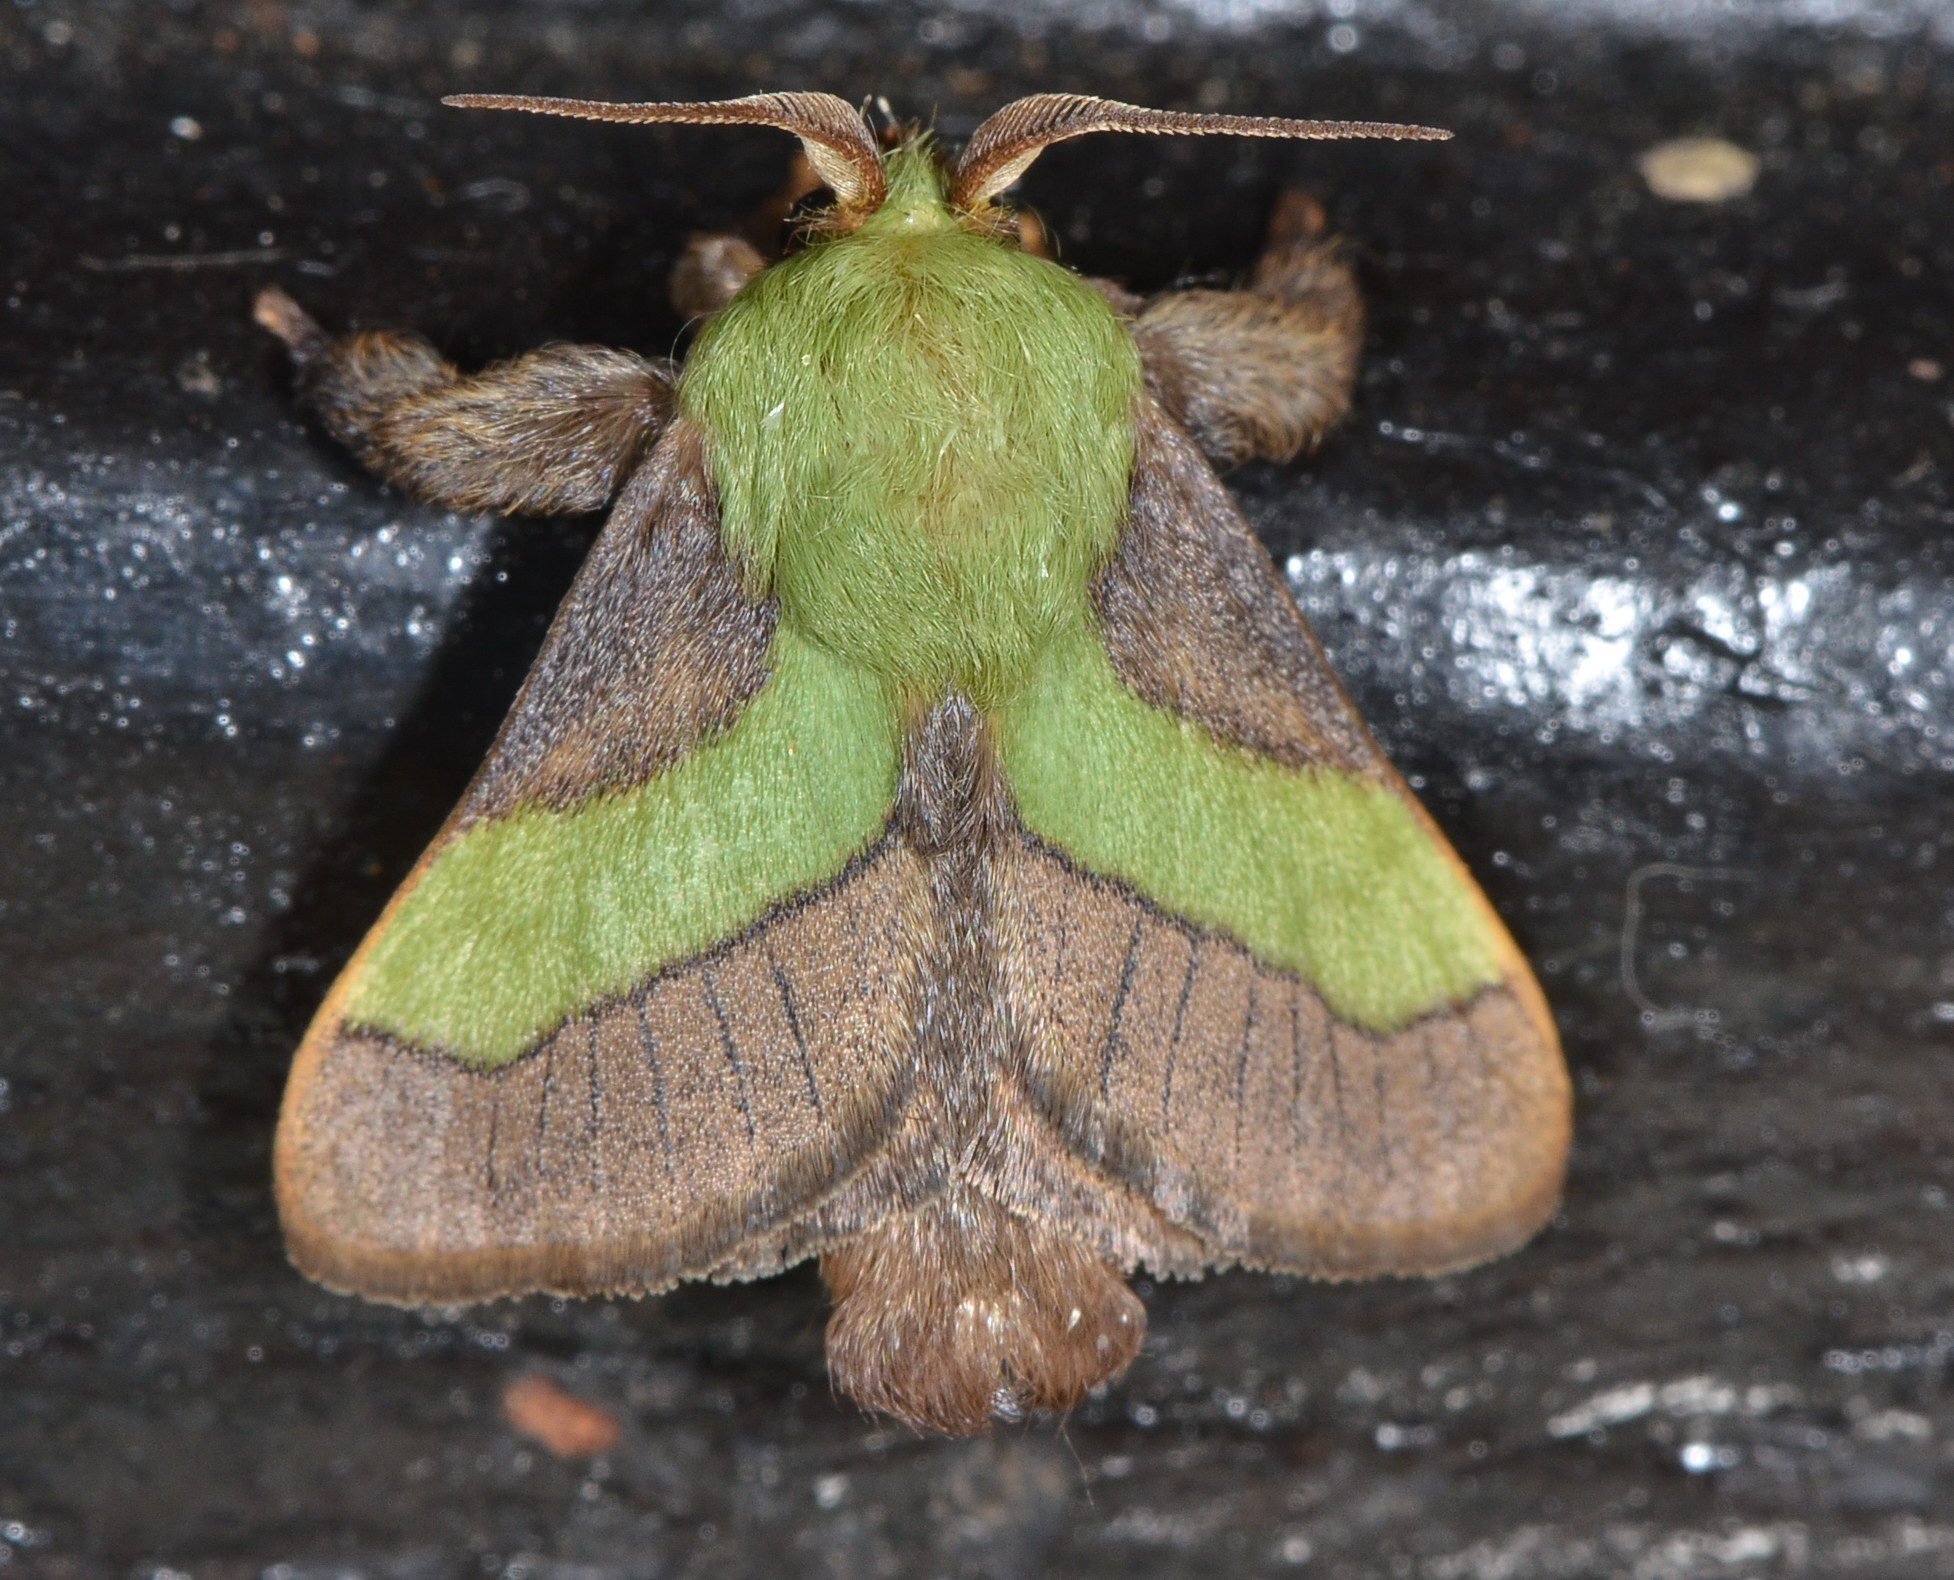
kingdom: Animalia
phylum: Arthropoda
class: Insecta
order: Lepidoptera
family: Limacodidae
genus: Parasa
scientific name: Parasa minima
